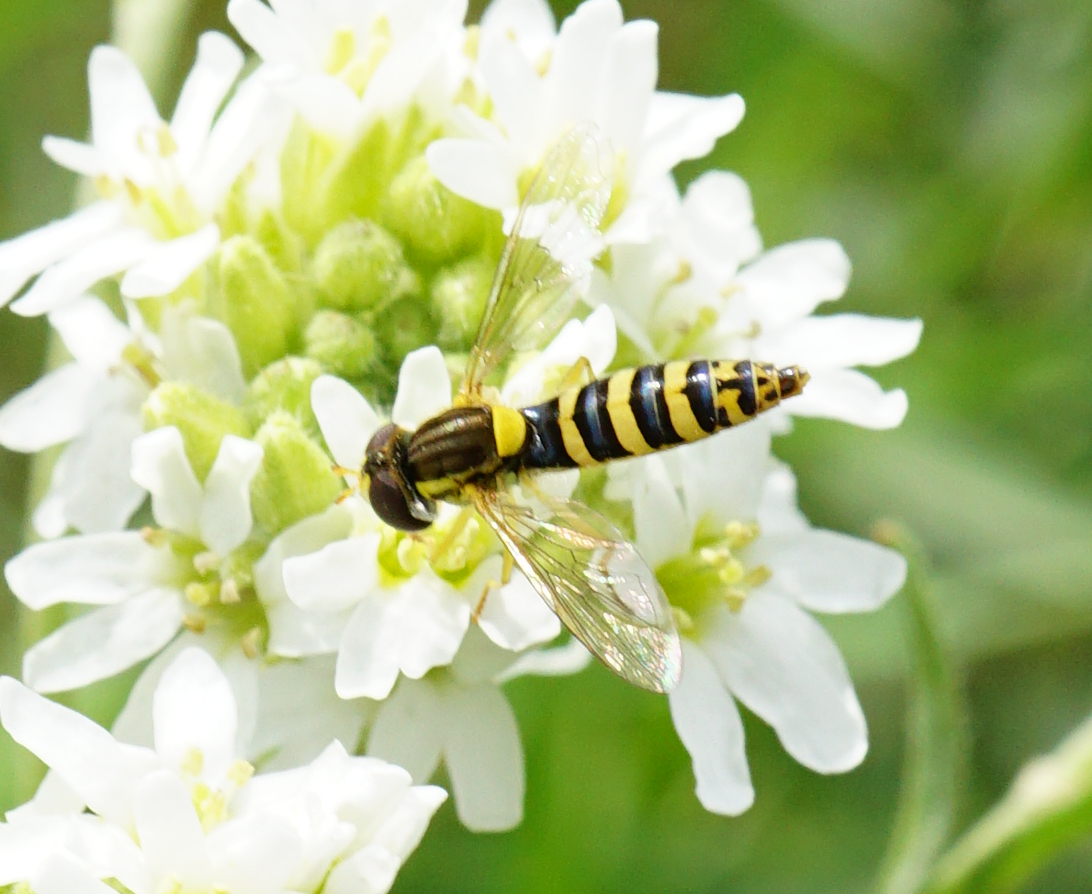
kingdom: Animalia
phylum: Arthropoda
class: Insecta
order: Diptera
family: Syrphidae
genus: Sphaerophoria
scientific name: Sphaerophoria
